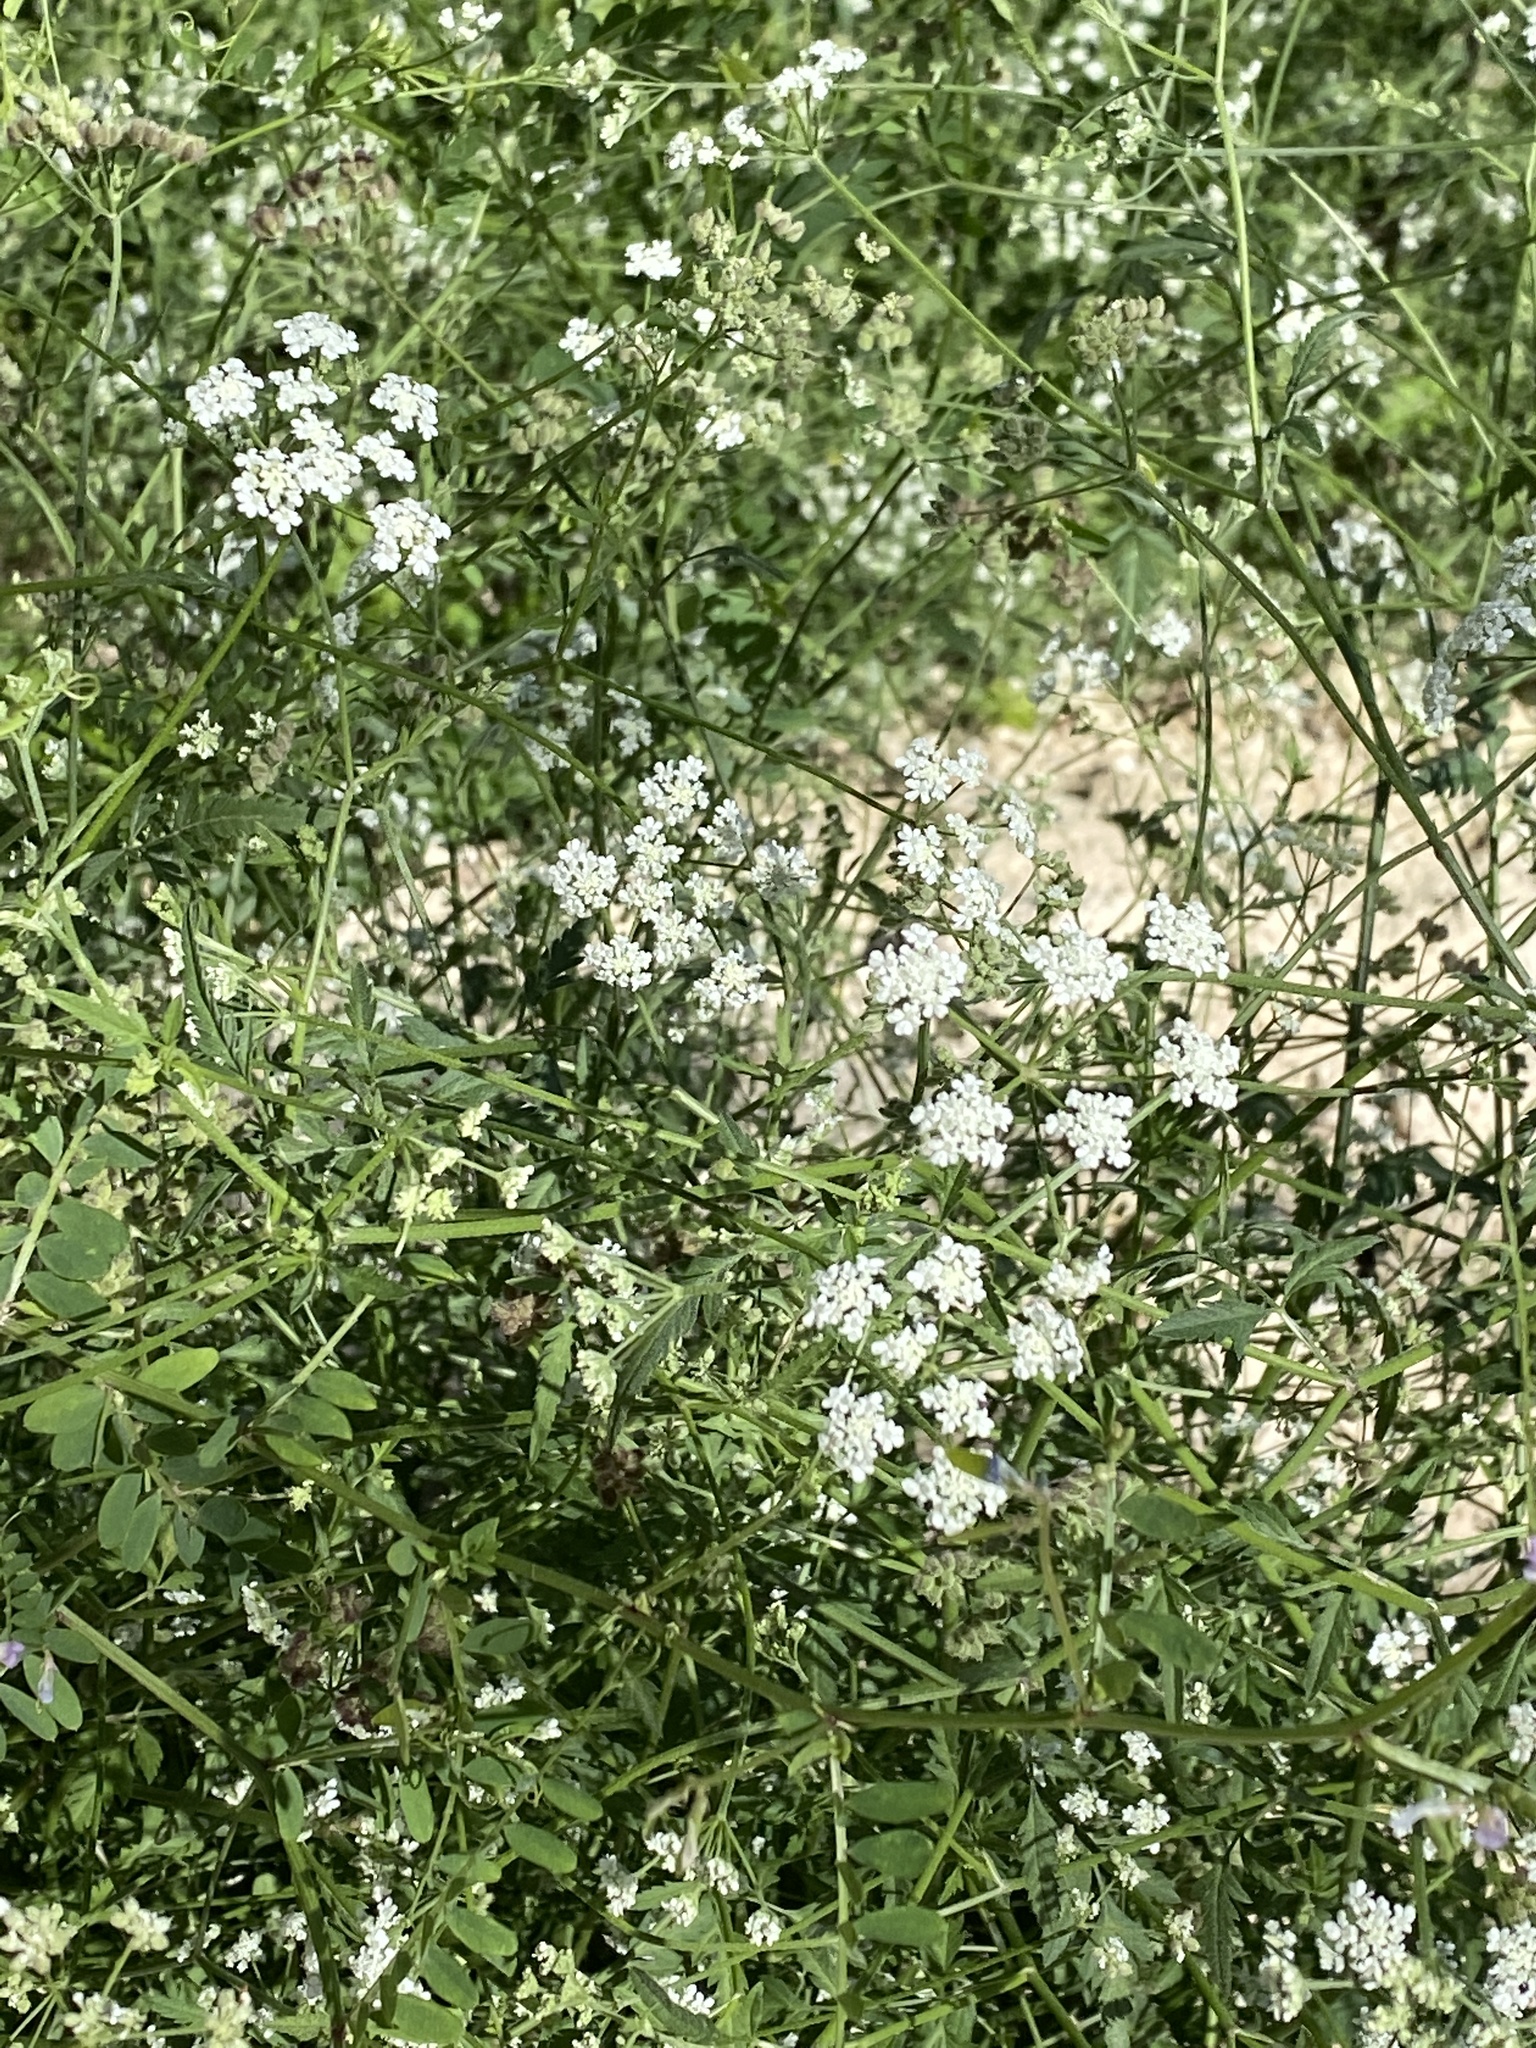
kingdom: Plantae
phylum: Tracheophyta
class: Magnoliopsida
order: Apiales
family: Apiaceae
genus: Torilis
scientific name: Torilis arvensis
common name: Spreading hedge-parsley
